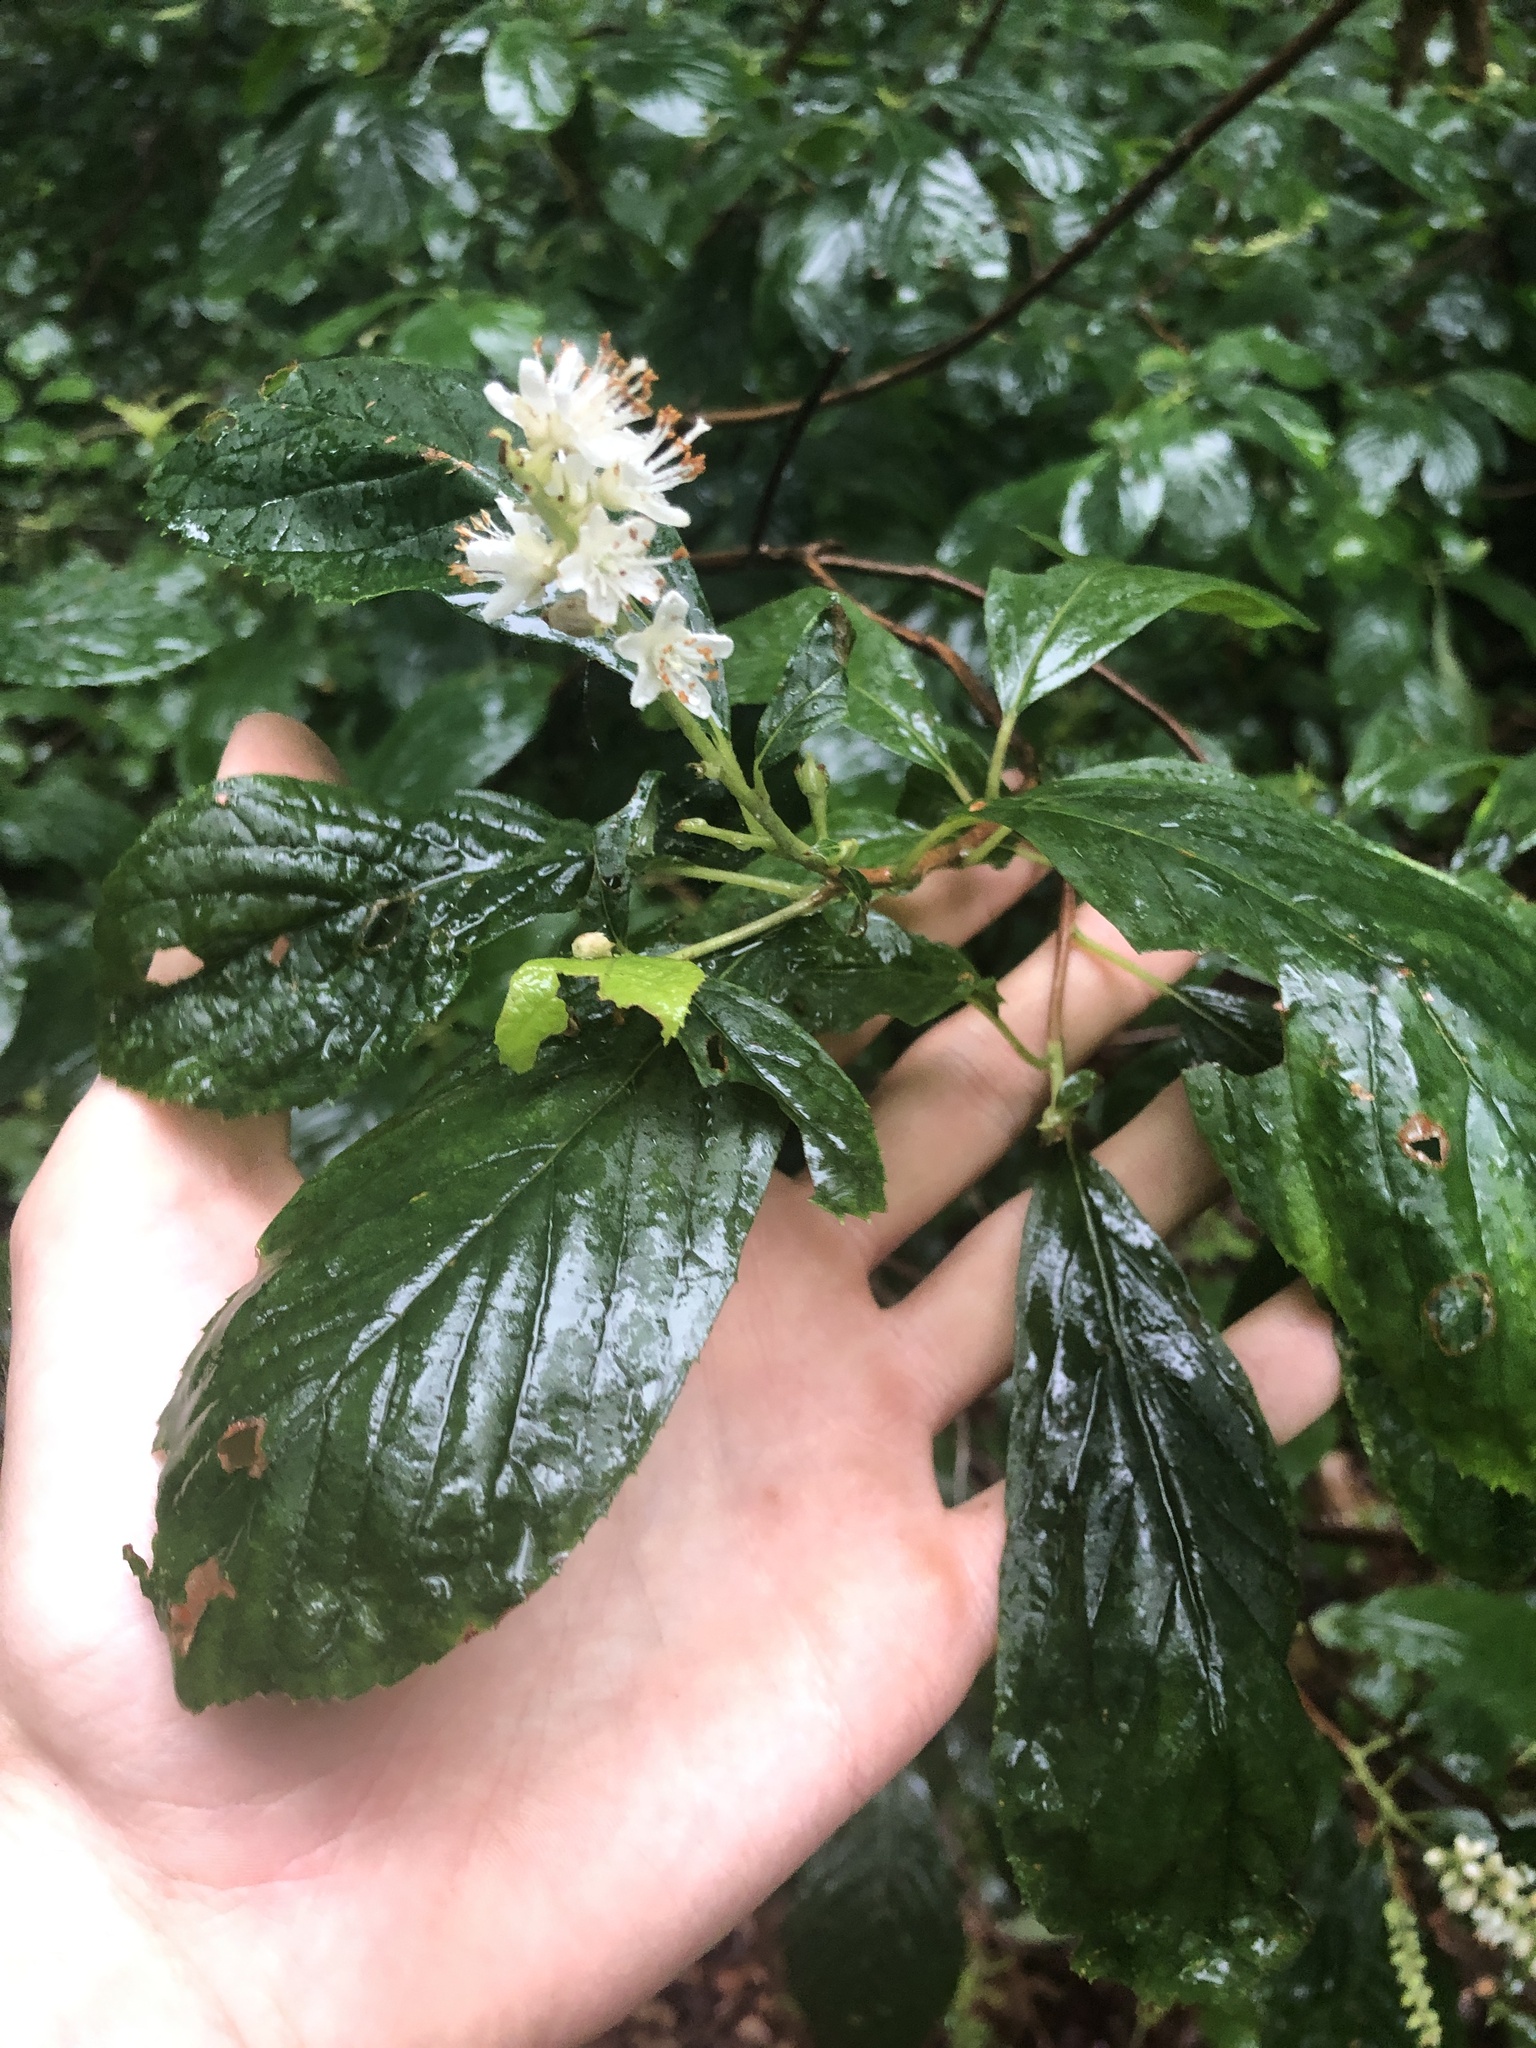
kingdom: Plantae
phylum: Tracheophyta
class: Magnoliopsida
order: Ericales
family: Clethraceae
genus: Clethra
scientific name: Clethra alnifolia
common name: Sweet pepperbush
